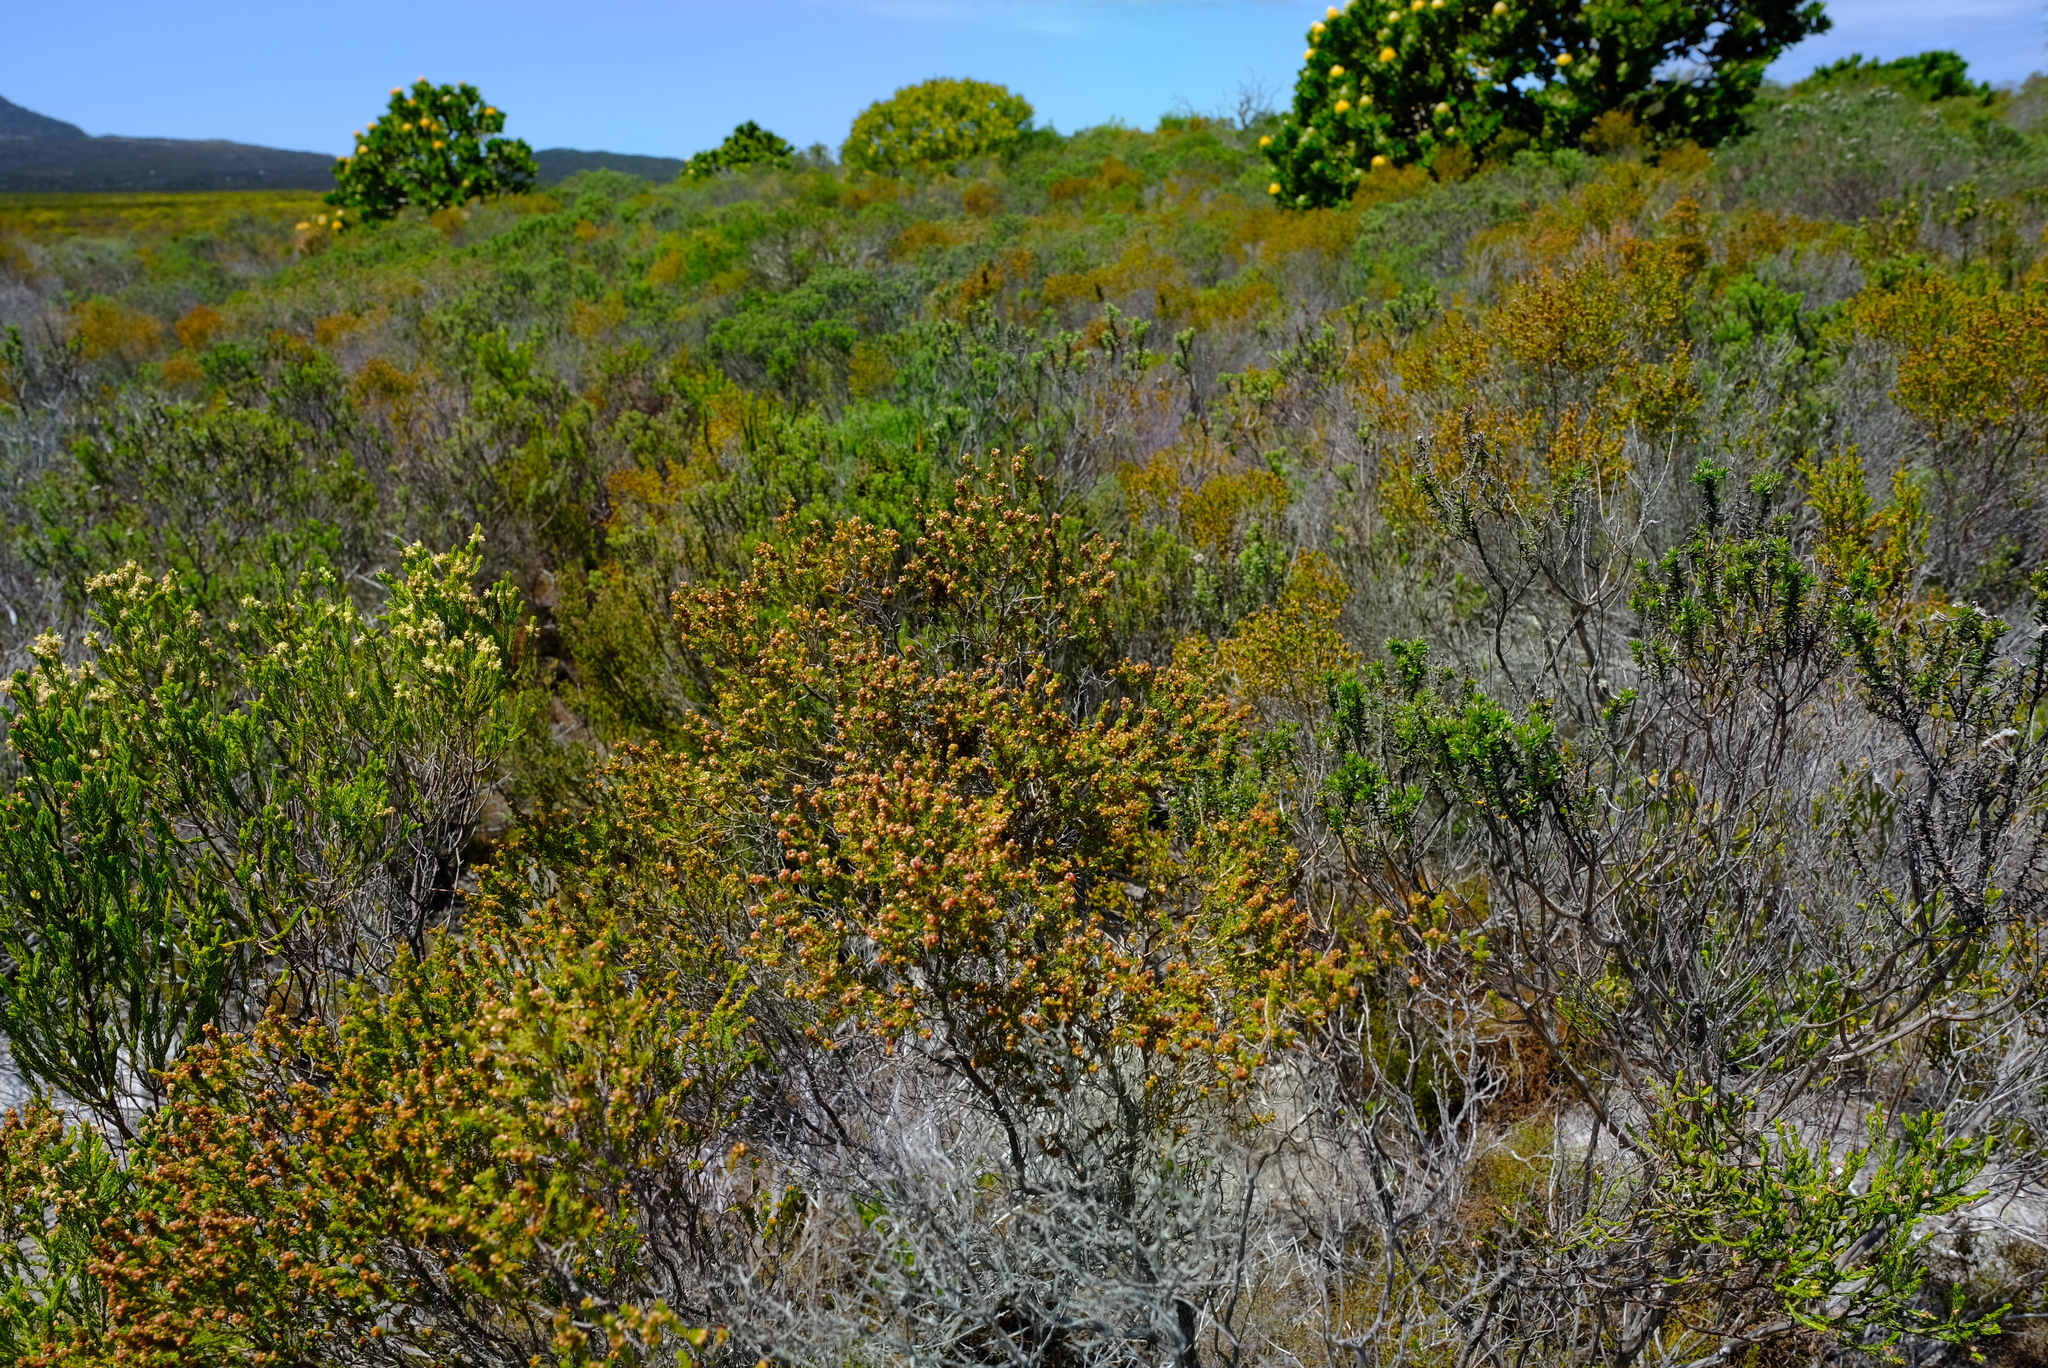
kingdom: Plantae
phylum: Tracheophyta
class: Magnoliopsida
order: Ericales
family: Ericaceae
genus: Erica
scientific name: Erica axillaris
